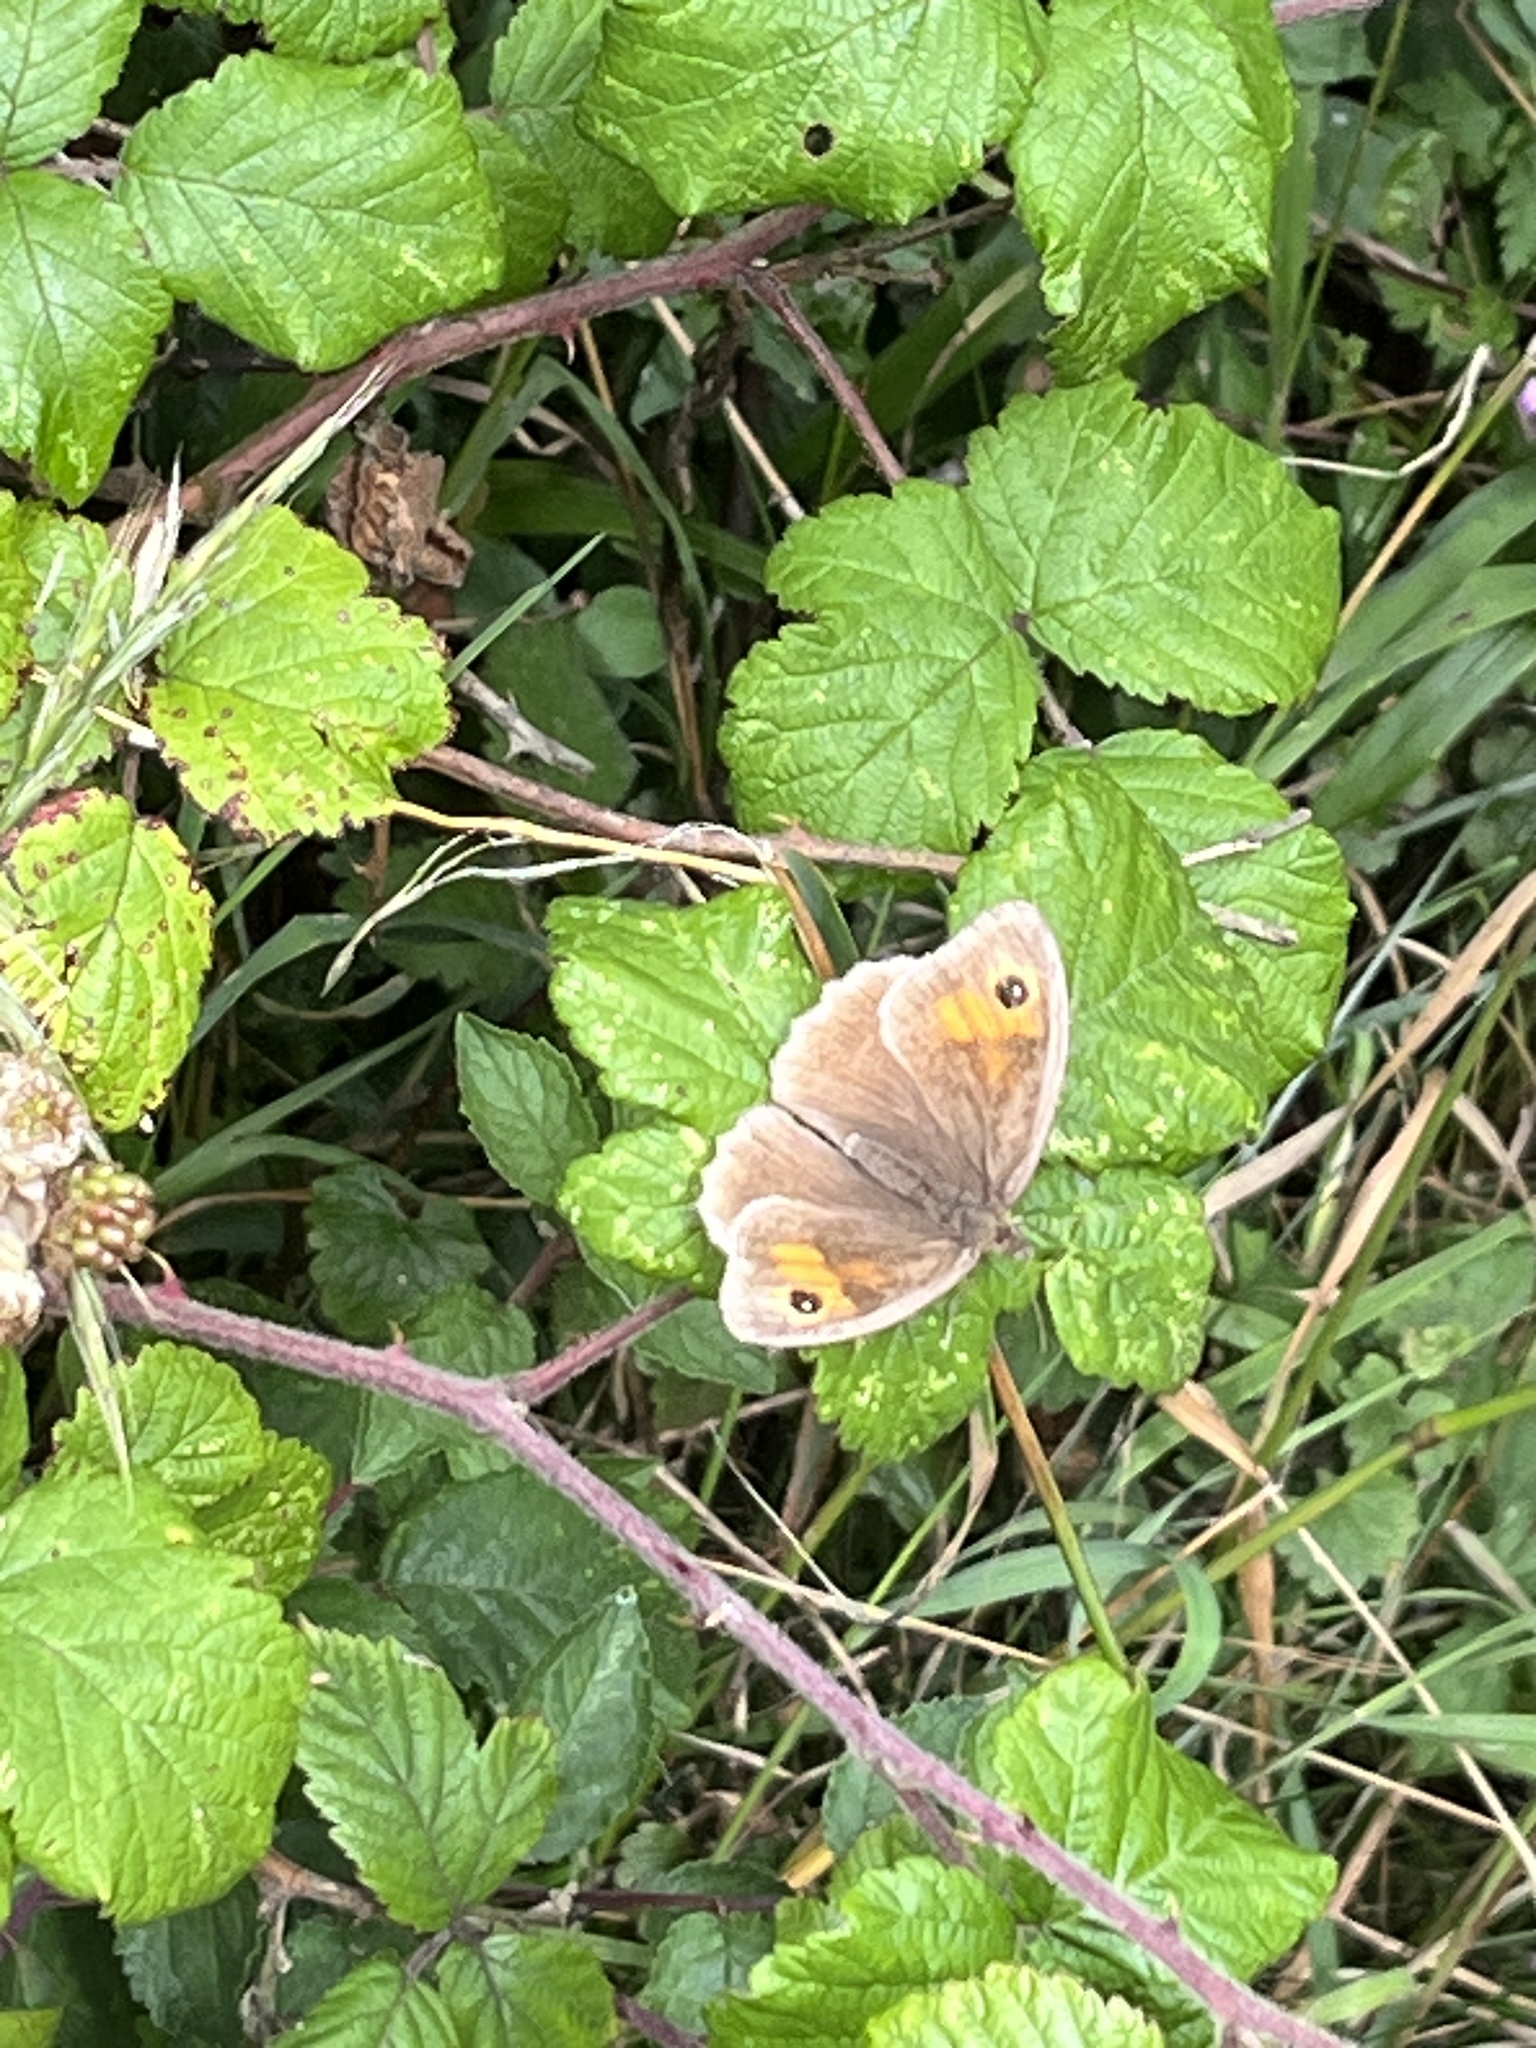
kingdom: Animalia
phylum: Arthropoda
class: Insecta
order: Lepidoptera
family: Nymphalidae
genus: Maniola
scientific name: Maniola jurtina
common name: Meadow brown
